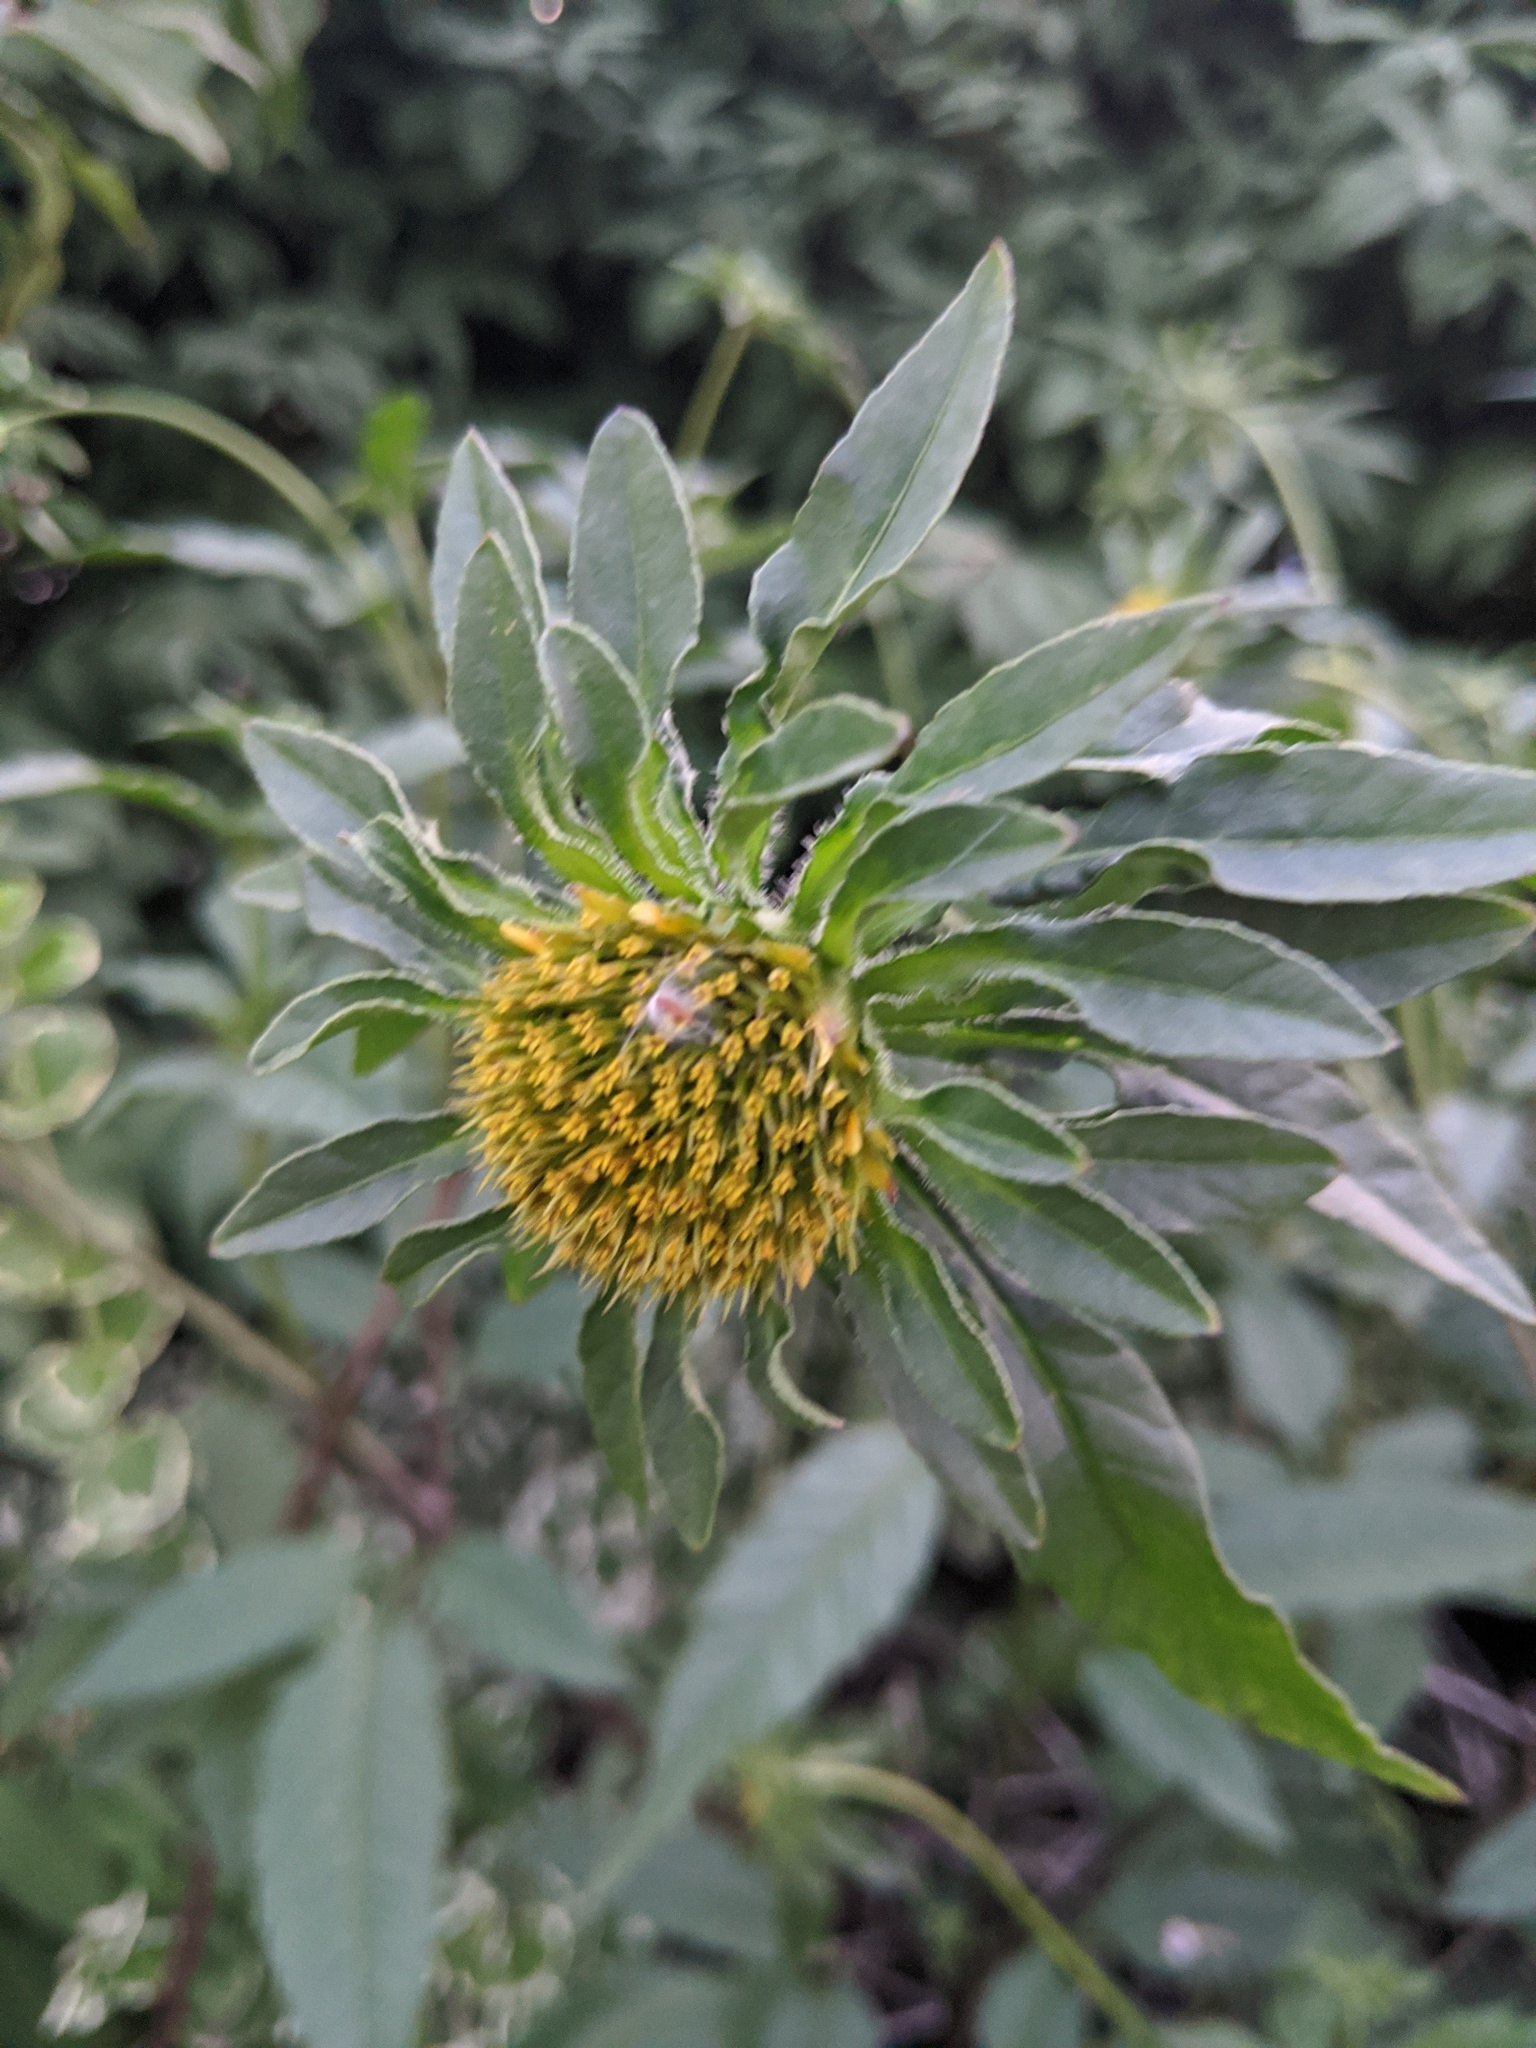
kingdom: Plantae
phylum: Tracheophyta
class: Magnoliopsida
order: Asterales
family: Asteraceae
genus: Bidens
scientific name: Bidens vulgata
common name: Tall beggarticks
